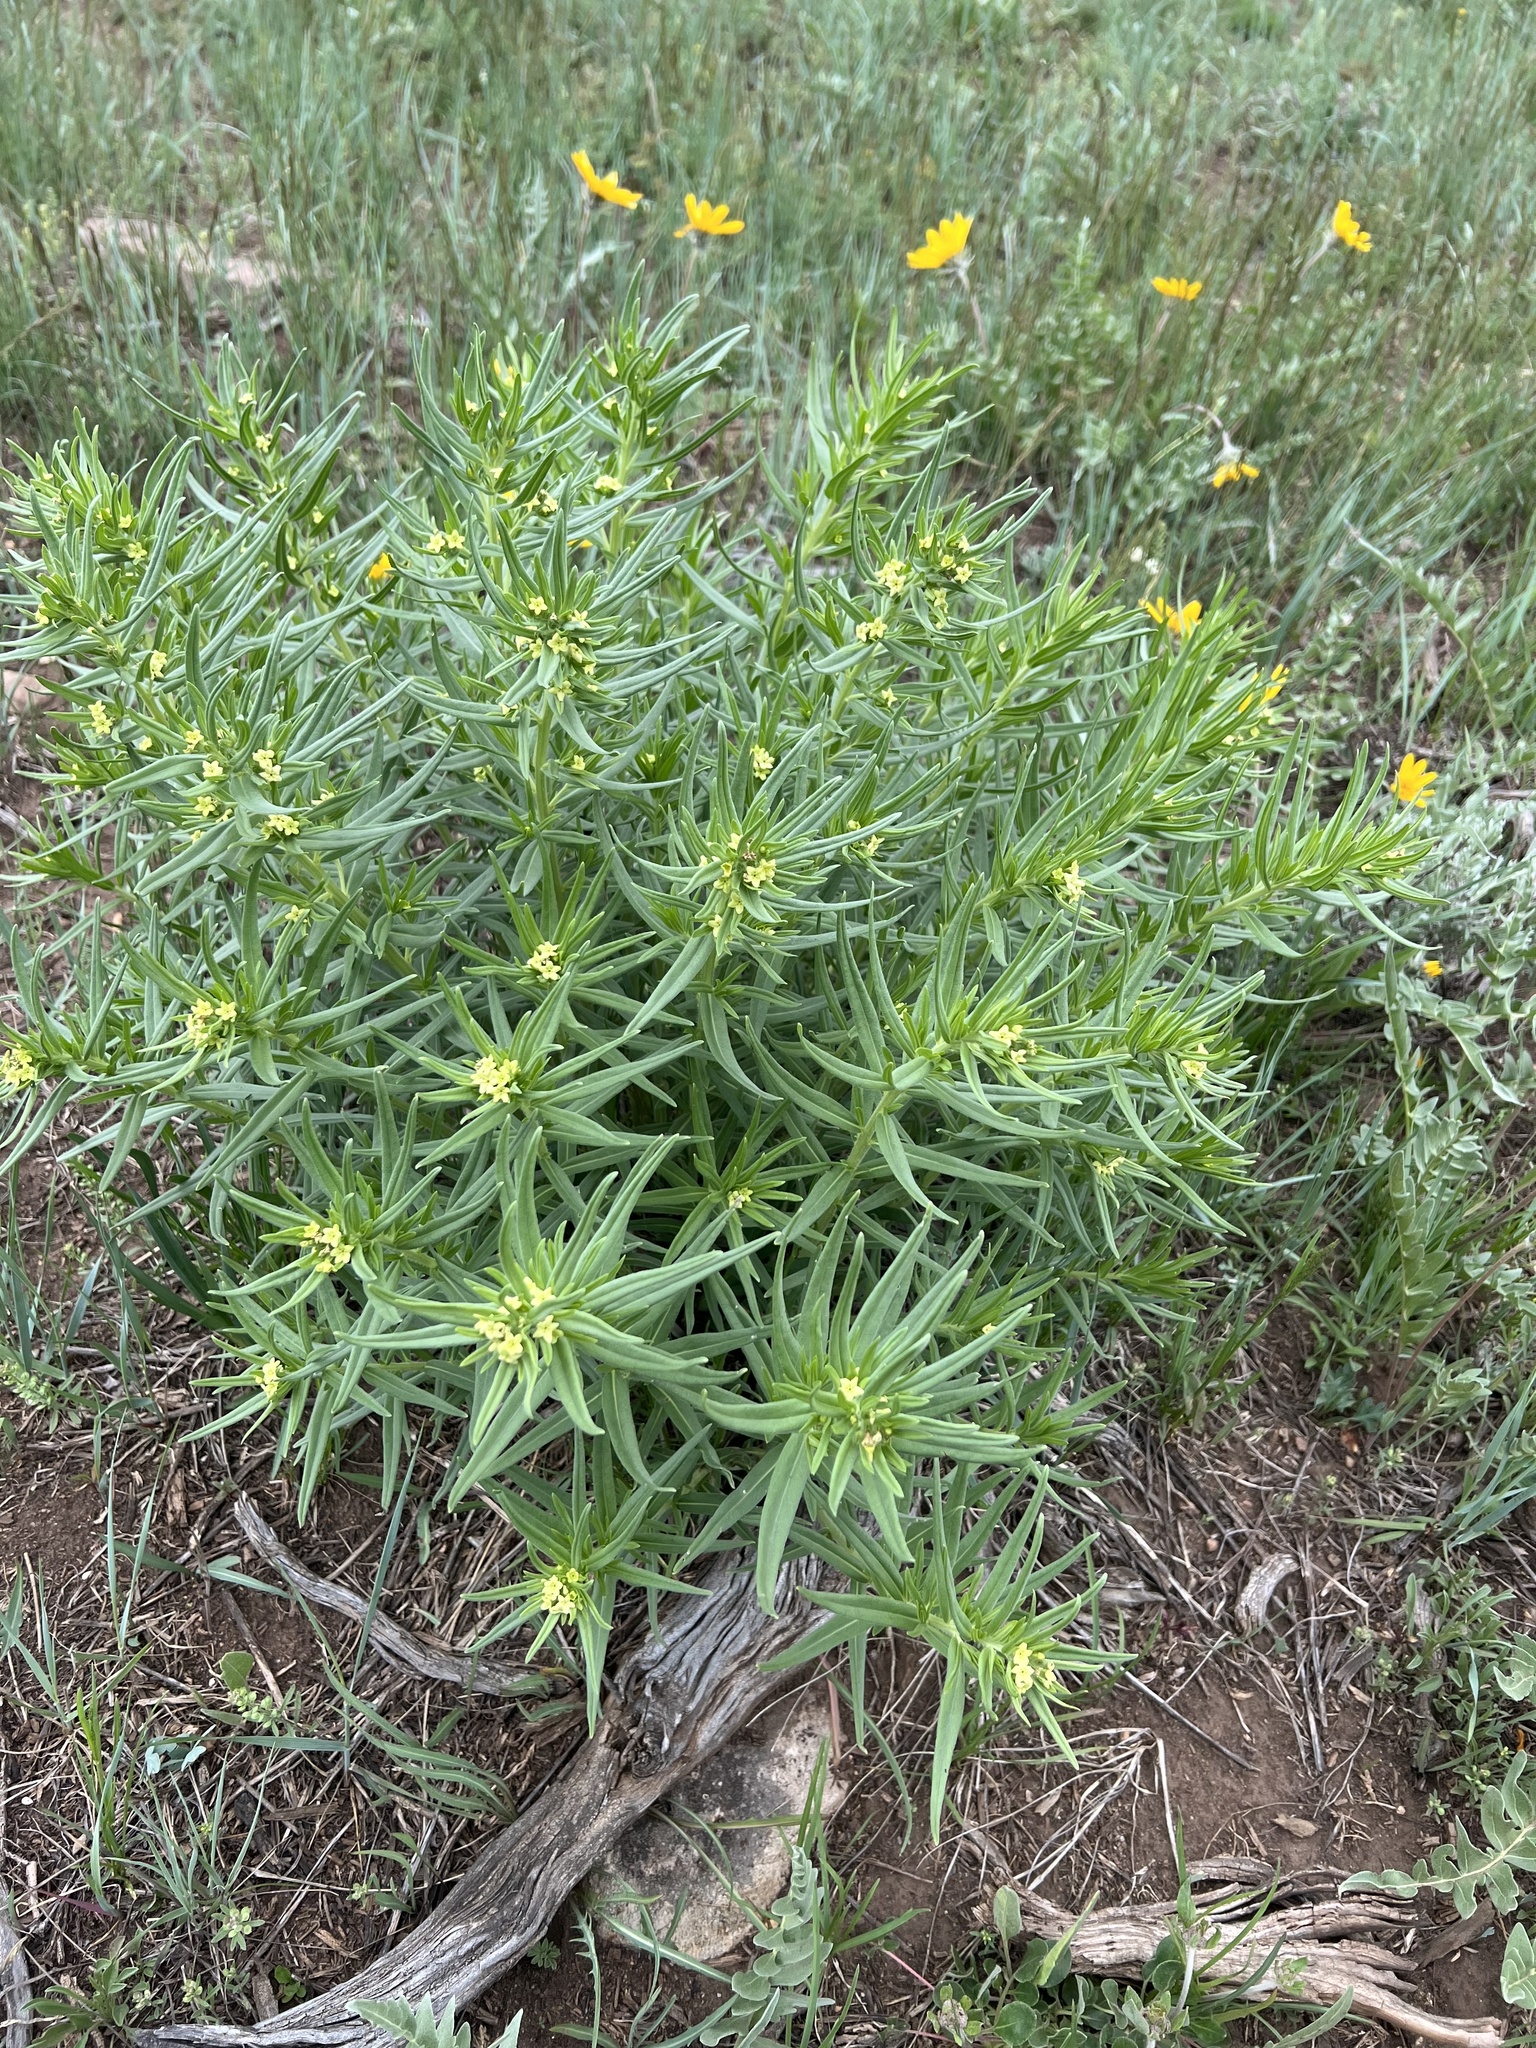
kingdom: Plantae
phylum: Tracheophyta
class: Magnoliopsida
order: Boraginales
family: Boraginaceae
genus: Lithospermum
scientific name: Lithospermum ruderale
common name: Western gromwell
